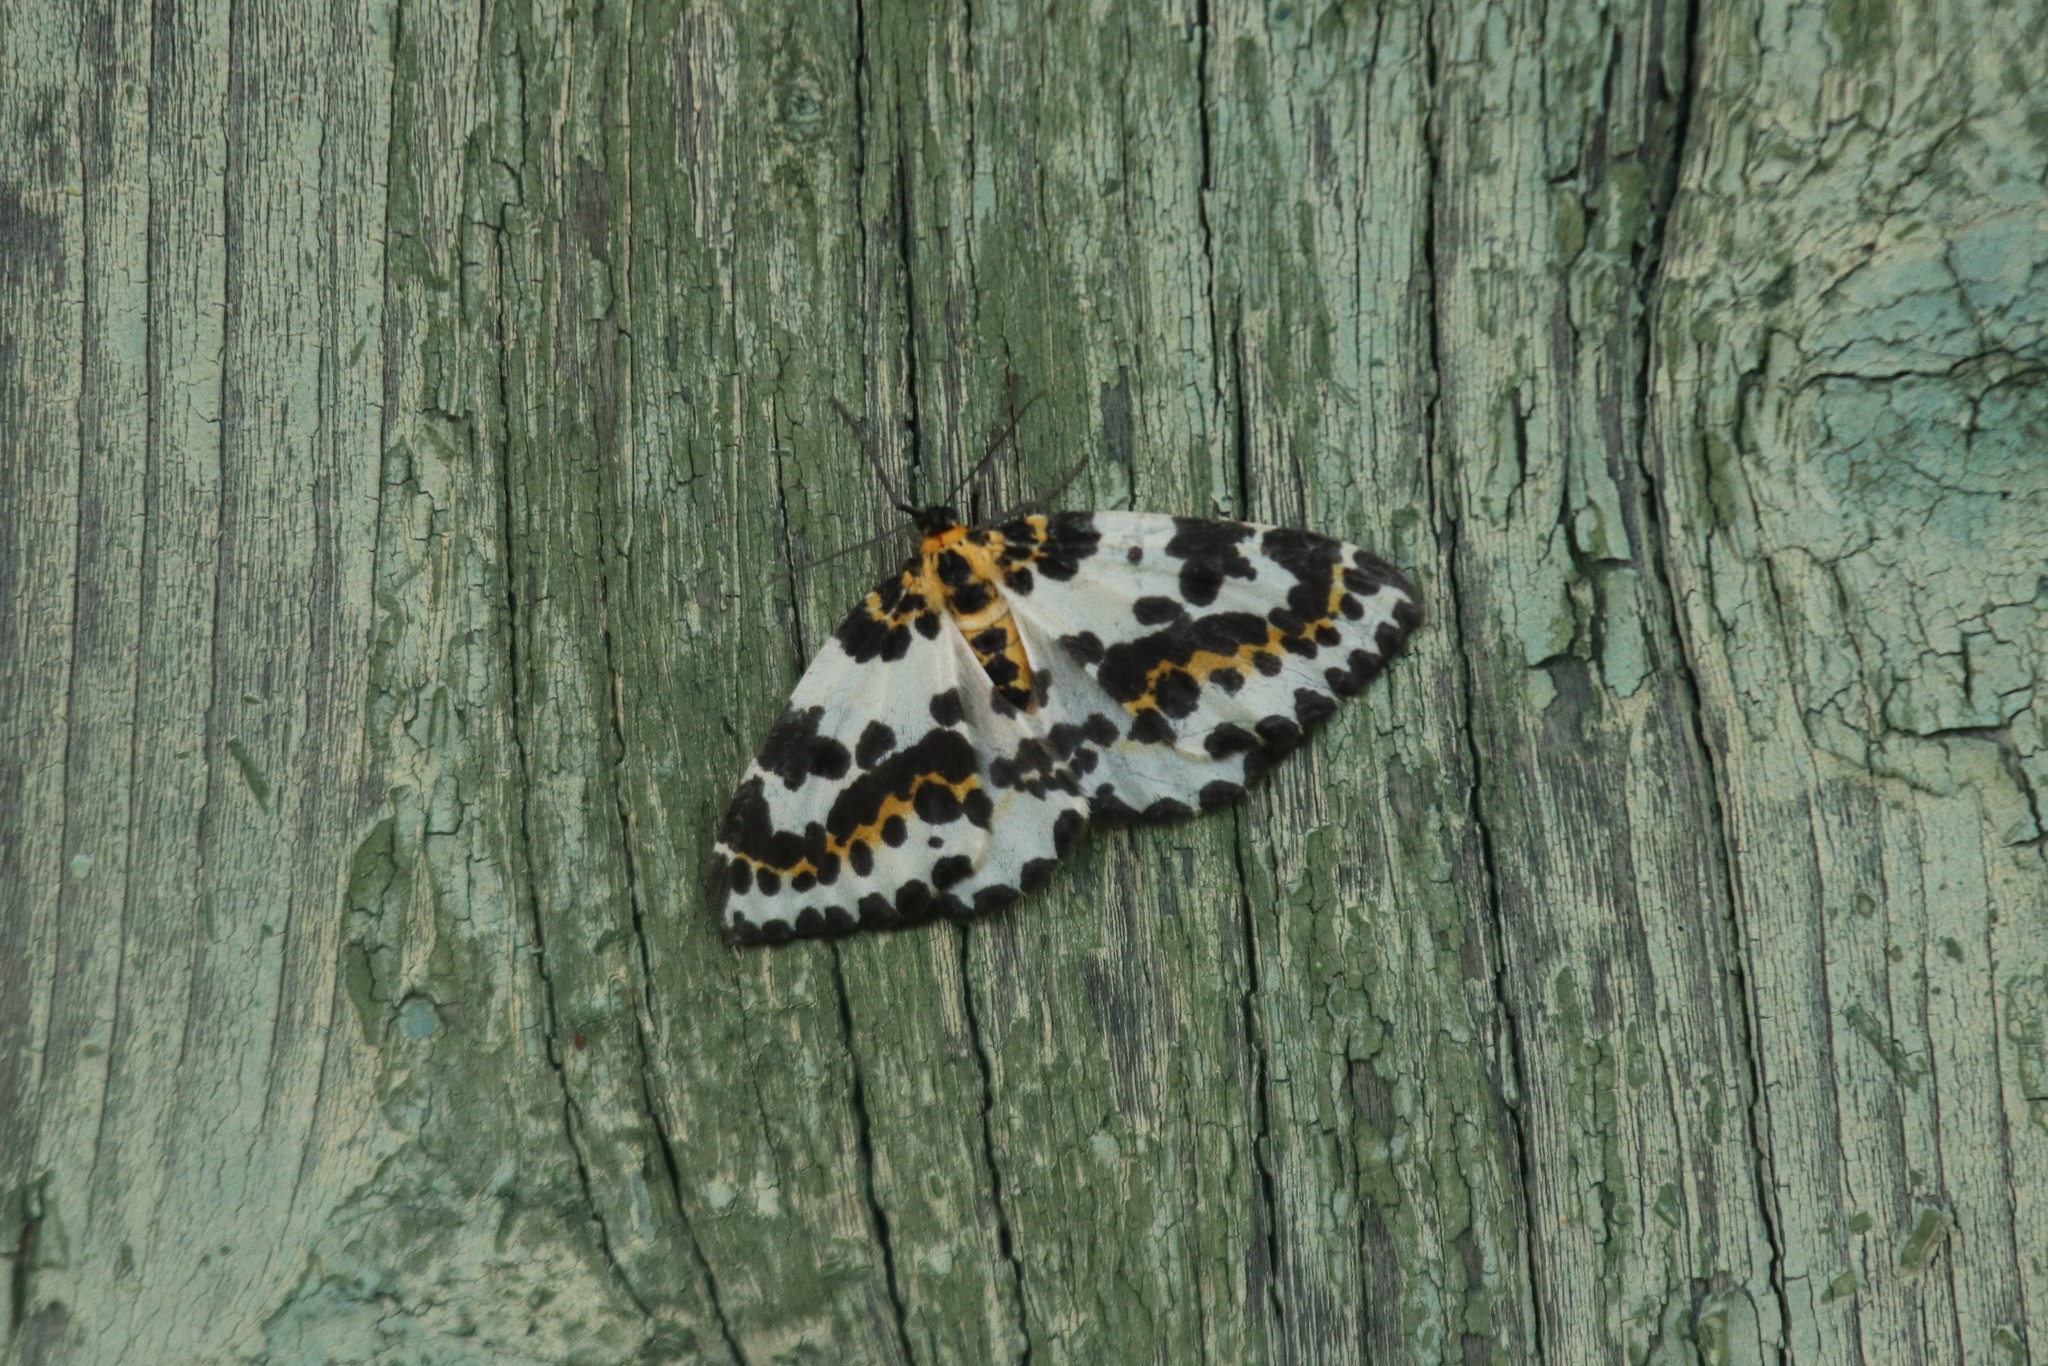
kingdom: Animalia
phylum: Arthropoda
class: Insecta
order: Lepidoptera
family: Geometridae
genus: Abraxas
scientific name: Abraxas grossulariata
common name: Magpie
